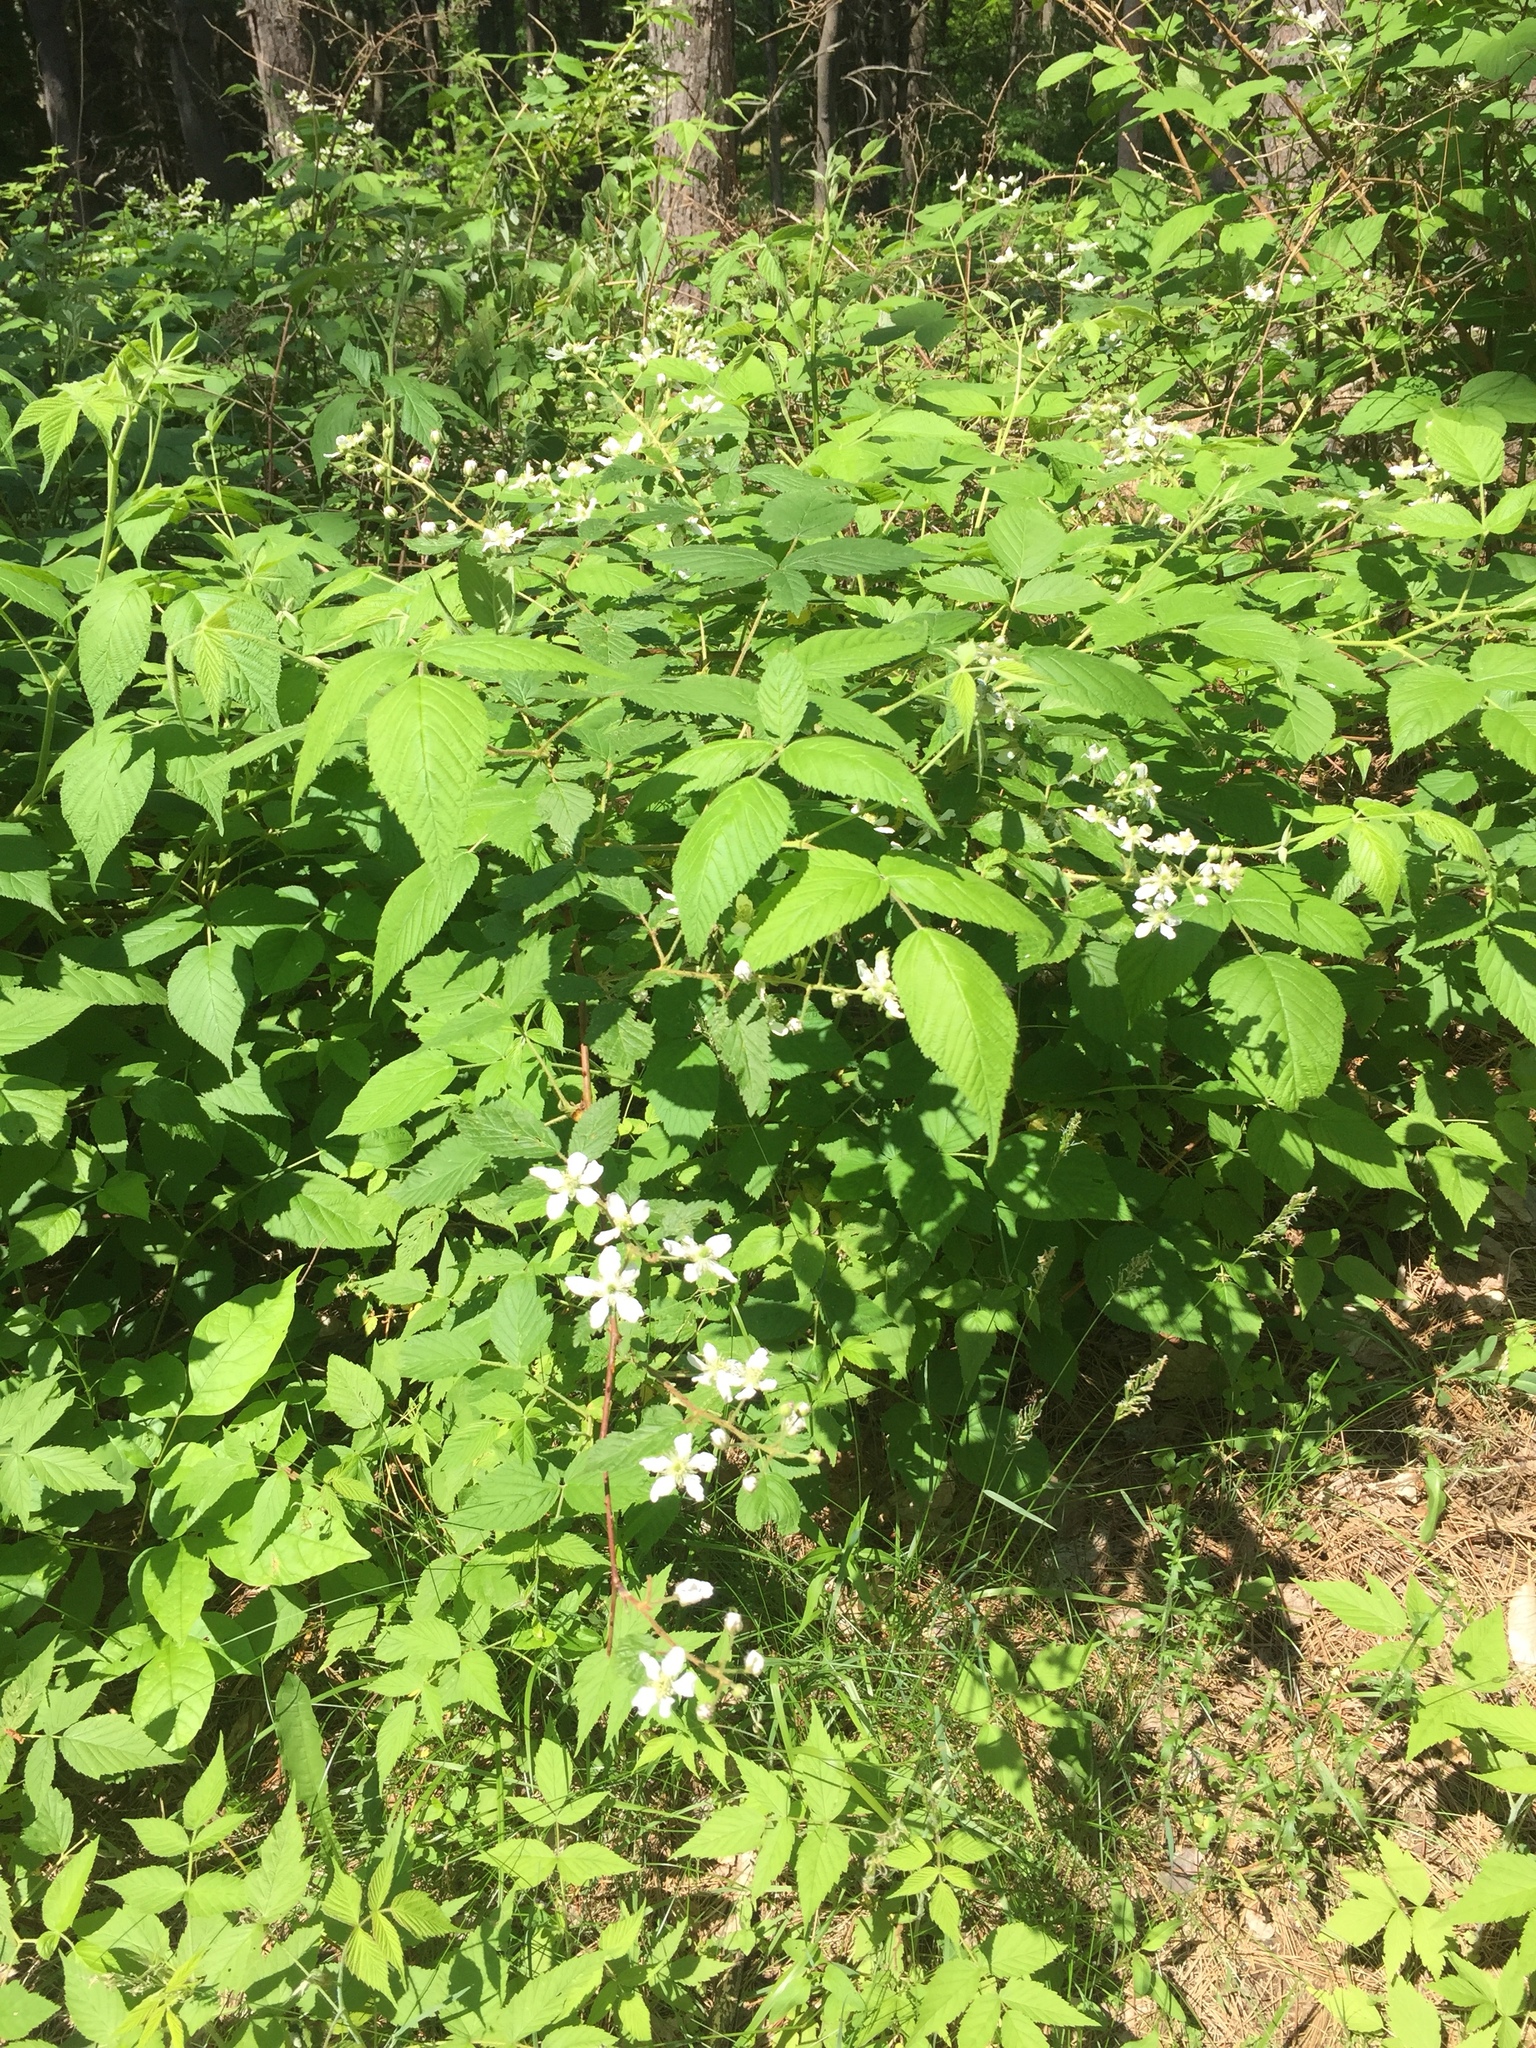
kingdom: Plantae
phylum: Tracheophyta
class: Magnoliopsida
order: Rosales
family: Rosaceae
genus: Rubus
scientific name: Rubus allegheniensis
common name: Allegheny blackberry
